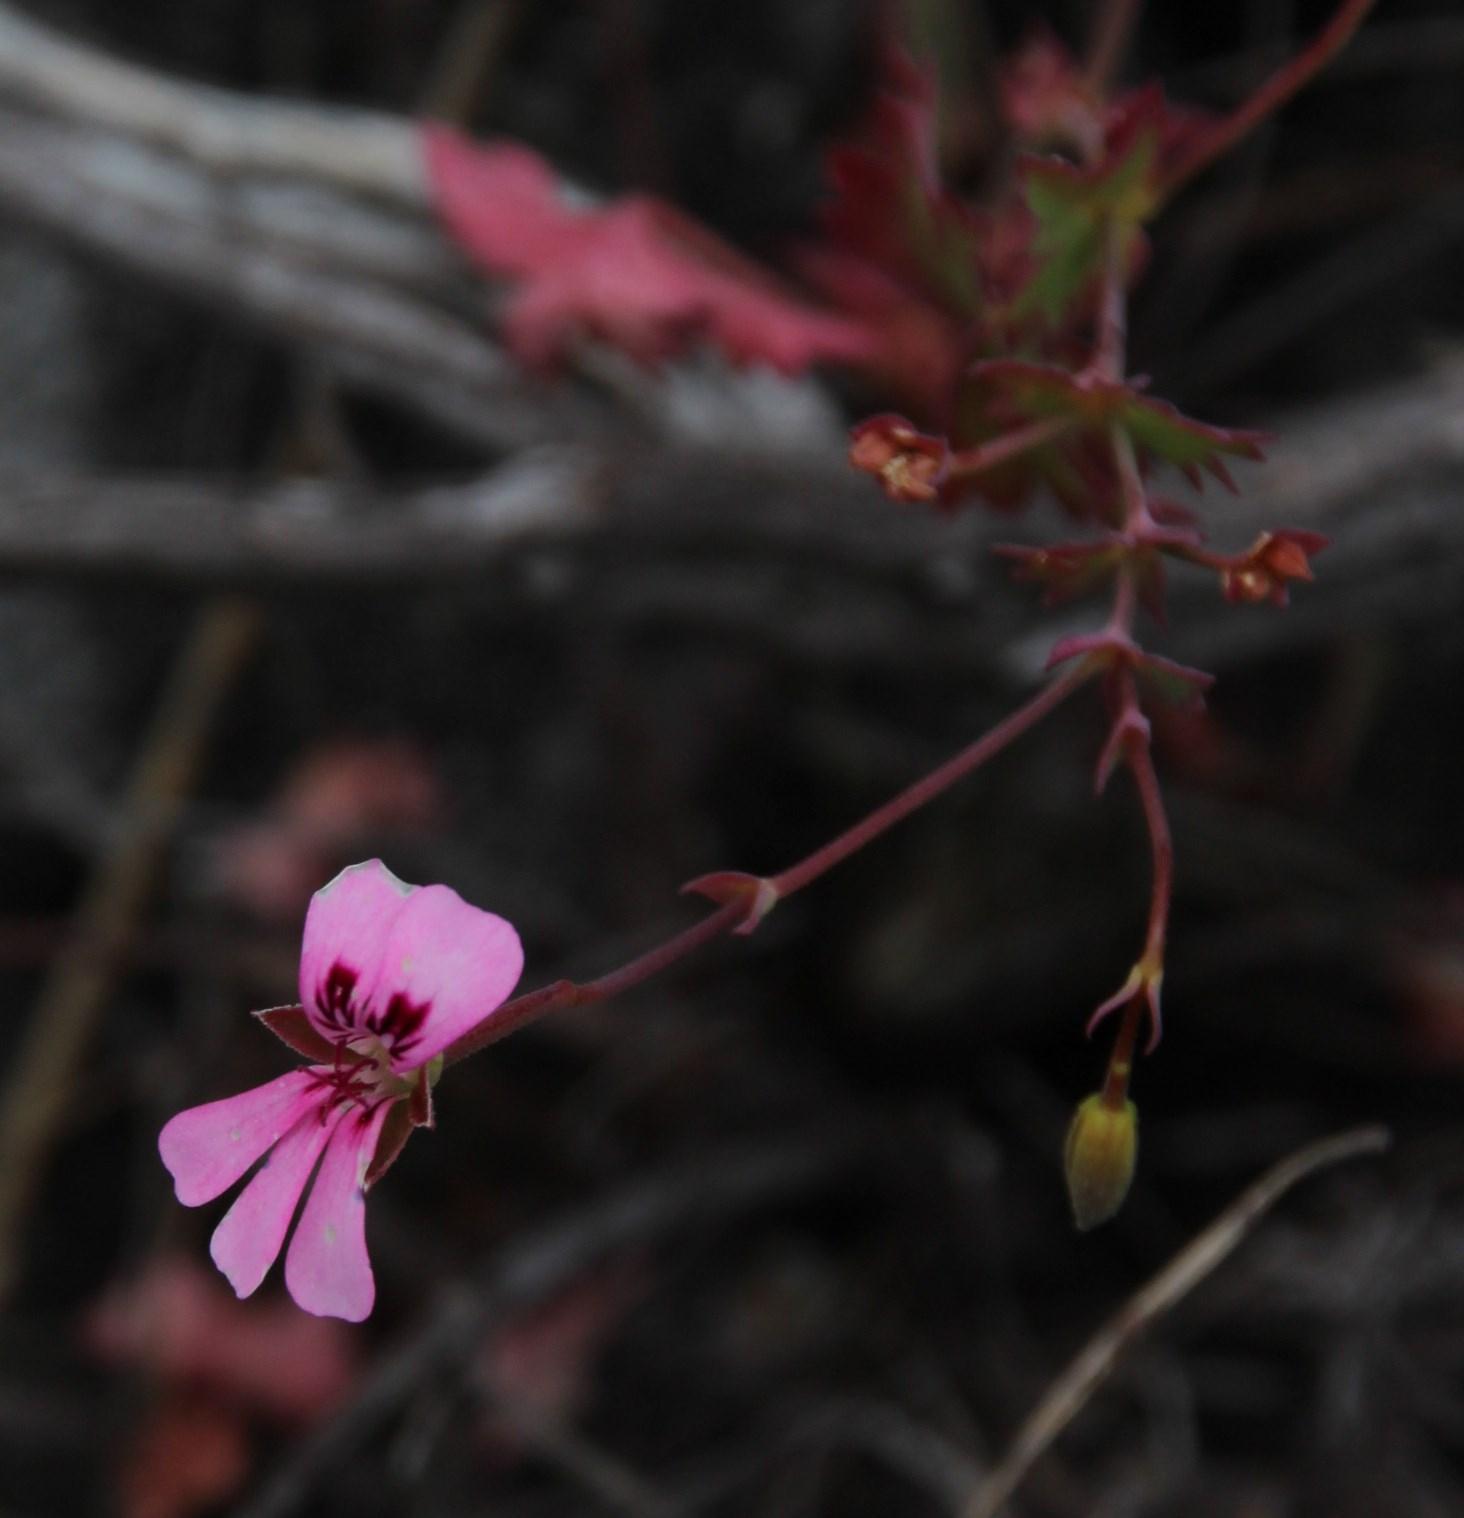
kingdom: Plantae
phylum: Tracheophyta
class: Magnoliopsida
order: Geraniales
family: Geraniaceae
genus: Pelargonium
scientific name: Pelargonium patulum
